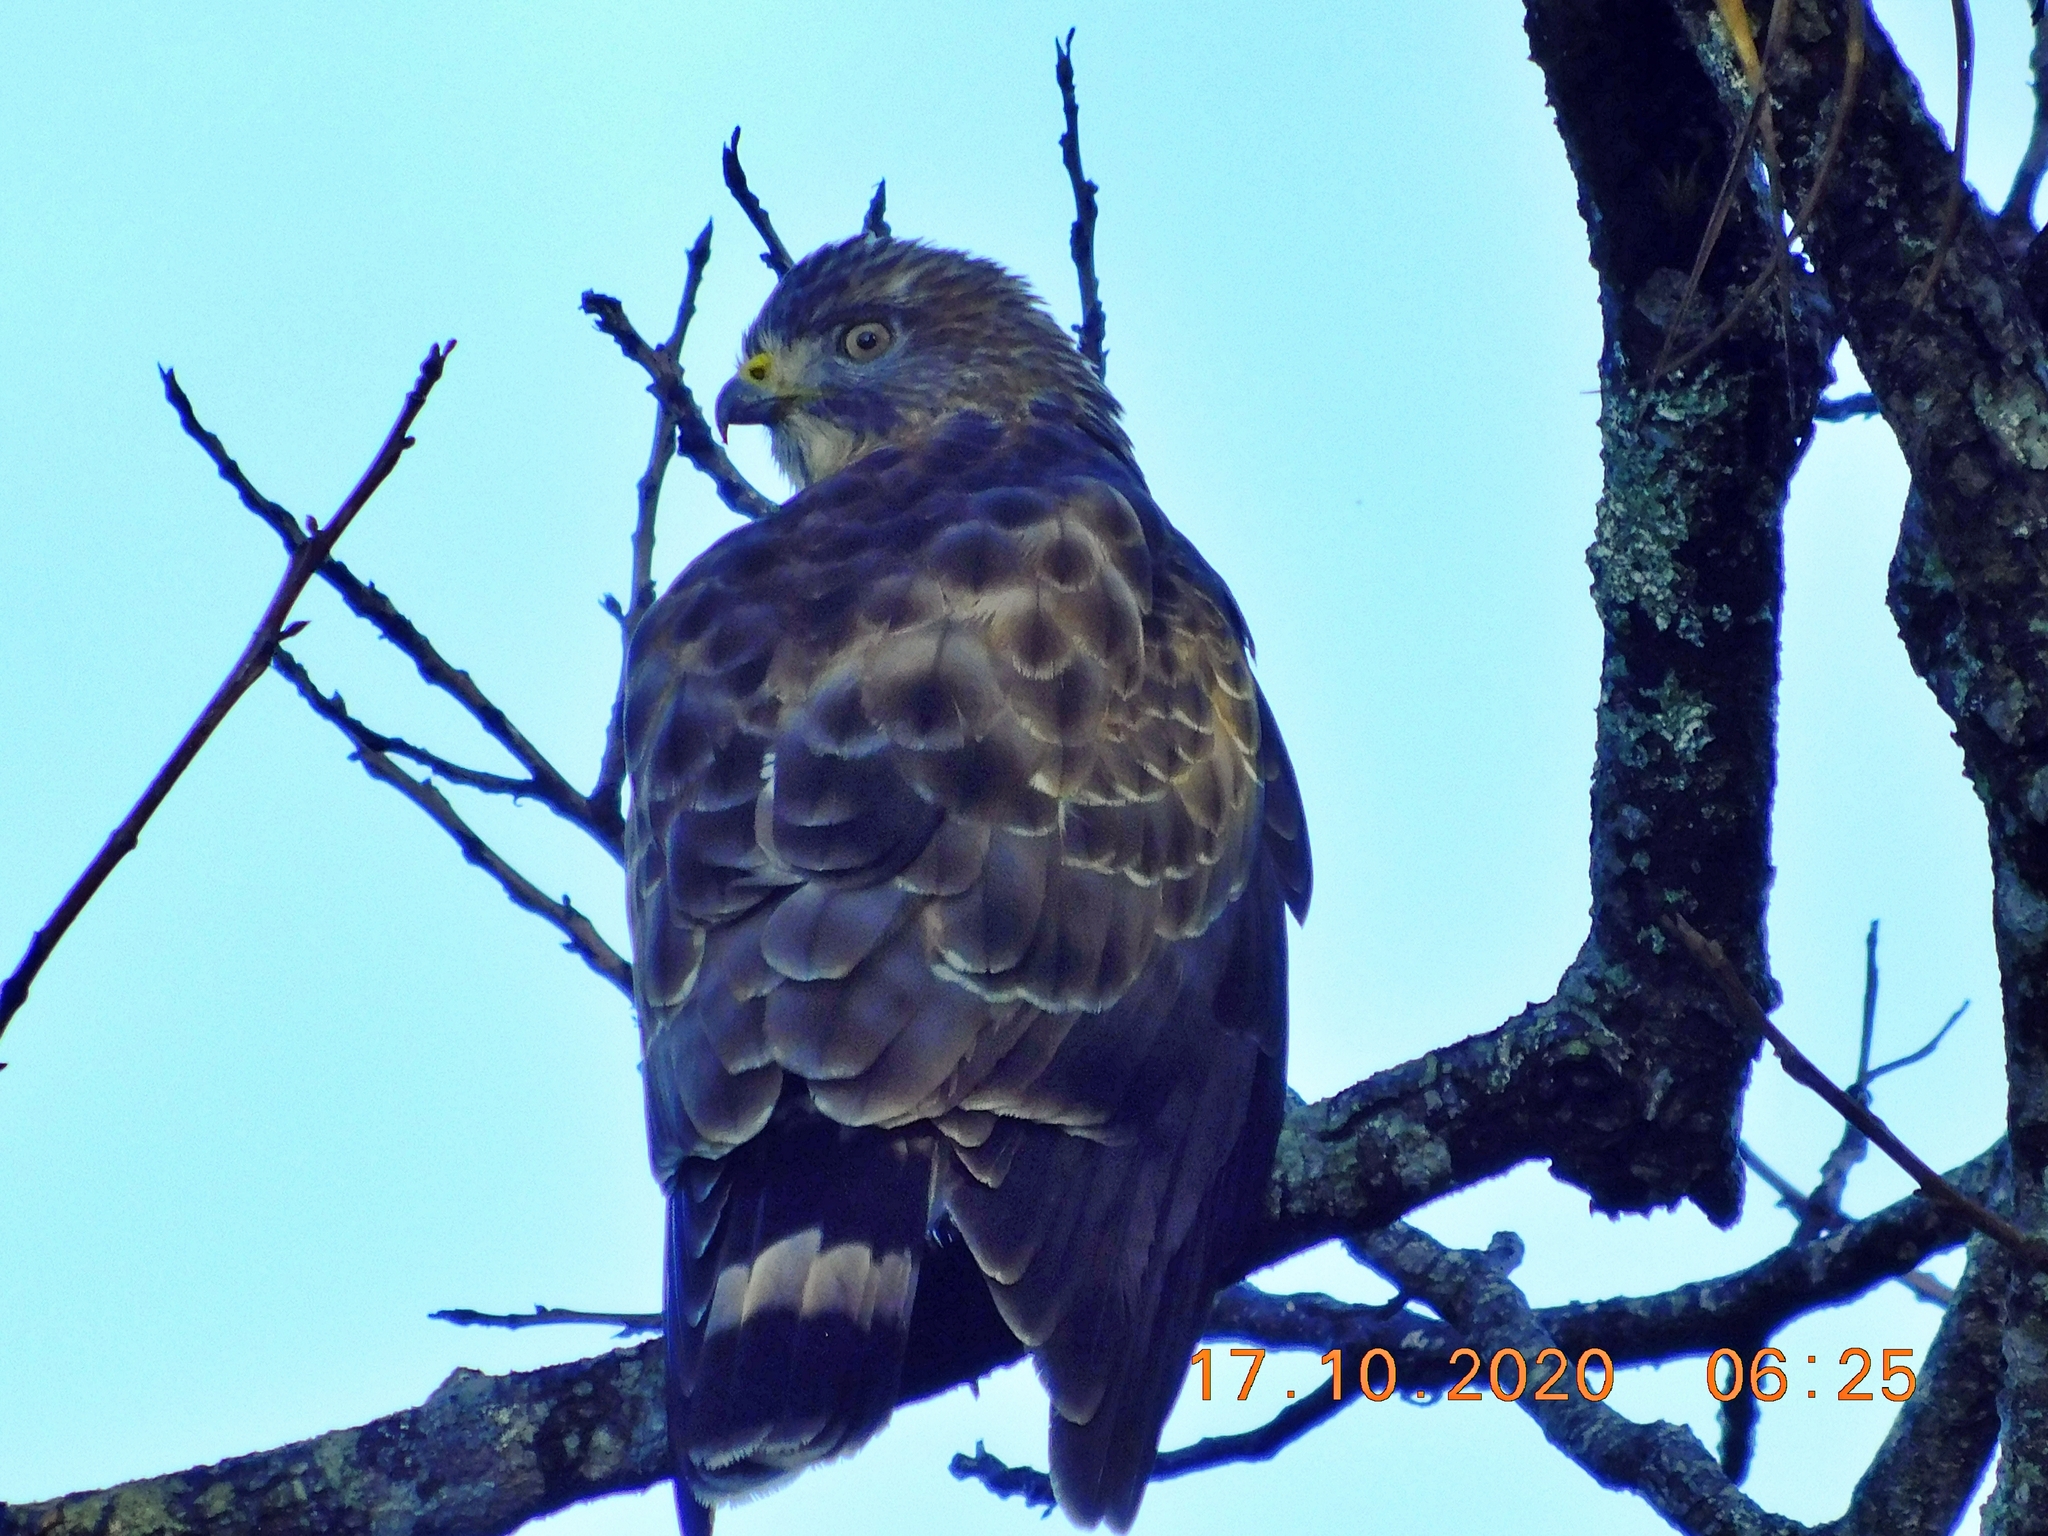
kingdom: Animalia
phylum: Chordata
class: Aves
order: Accipitriformes
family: Accipitridae
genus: Buteo
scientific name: Buteo platypterus
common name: Broad-winged hawk
